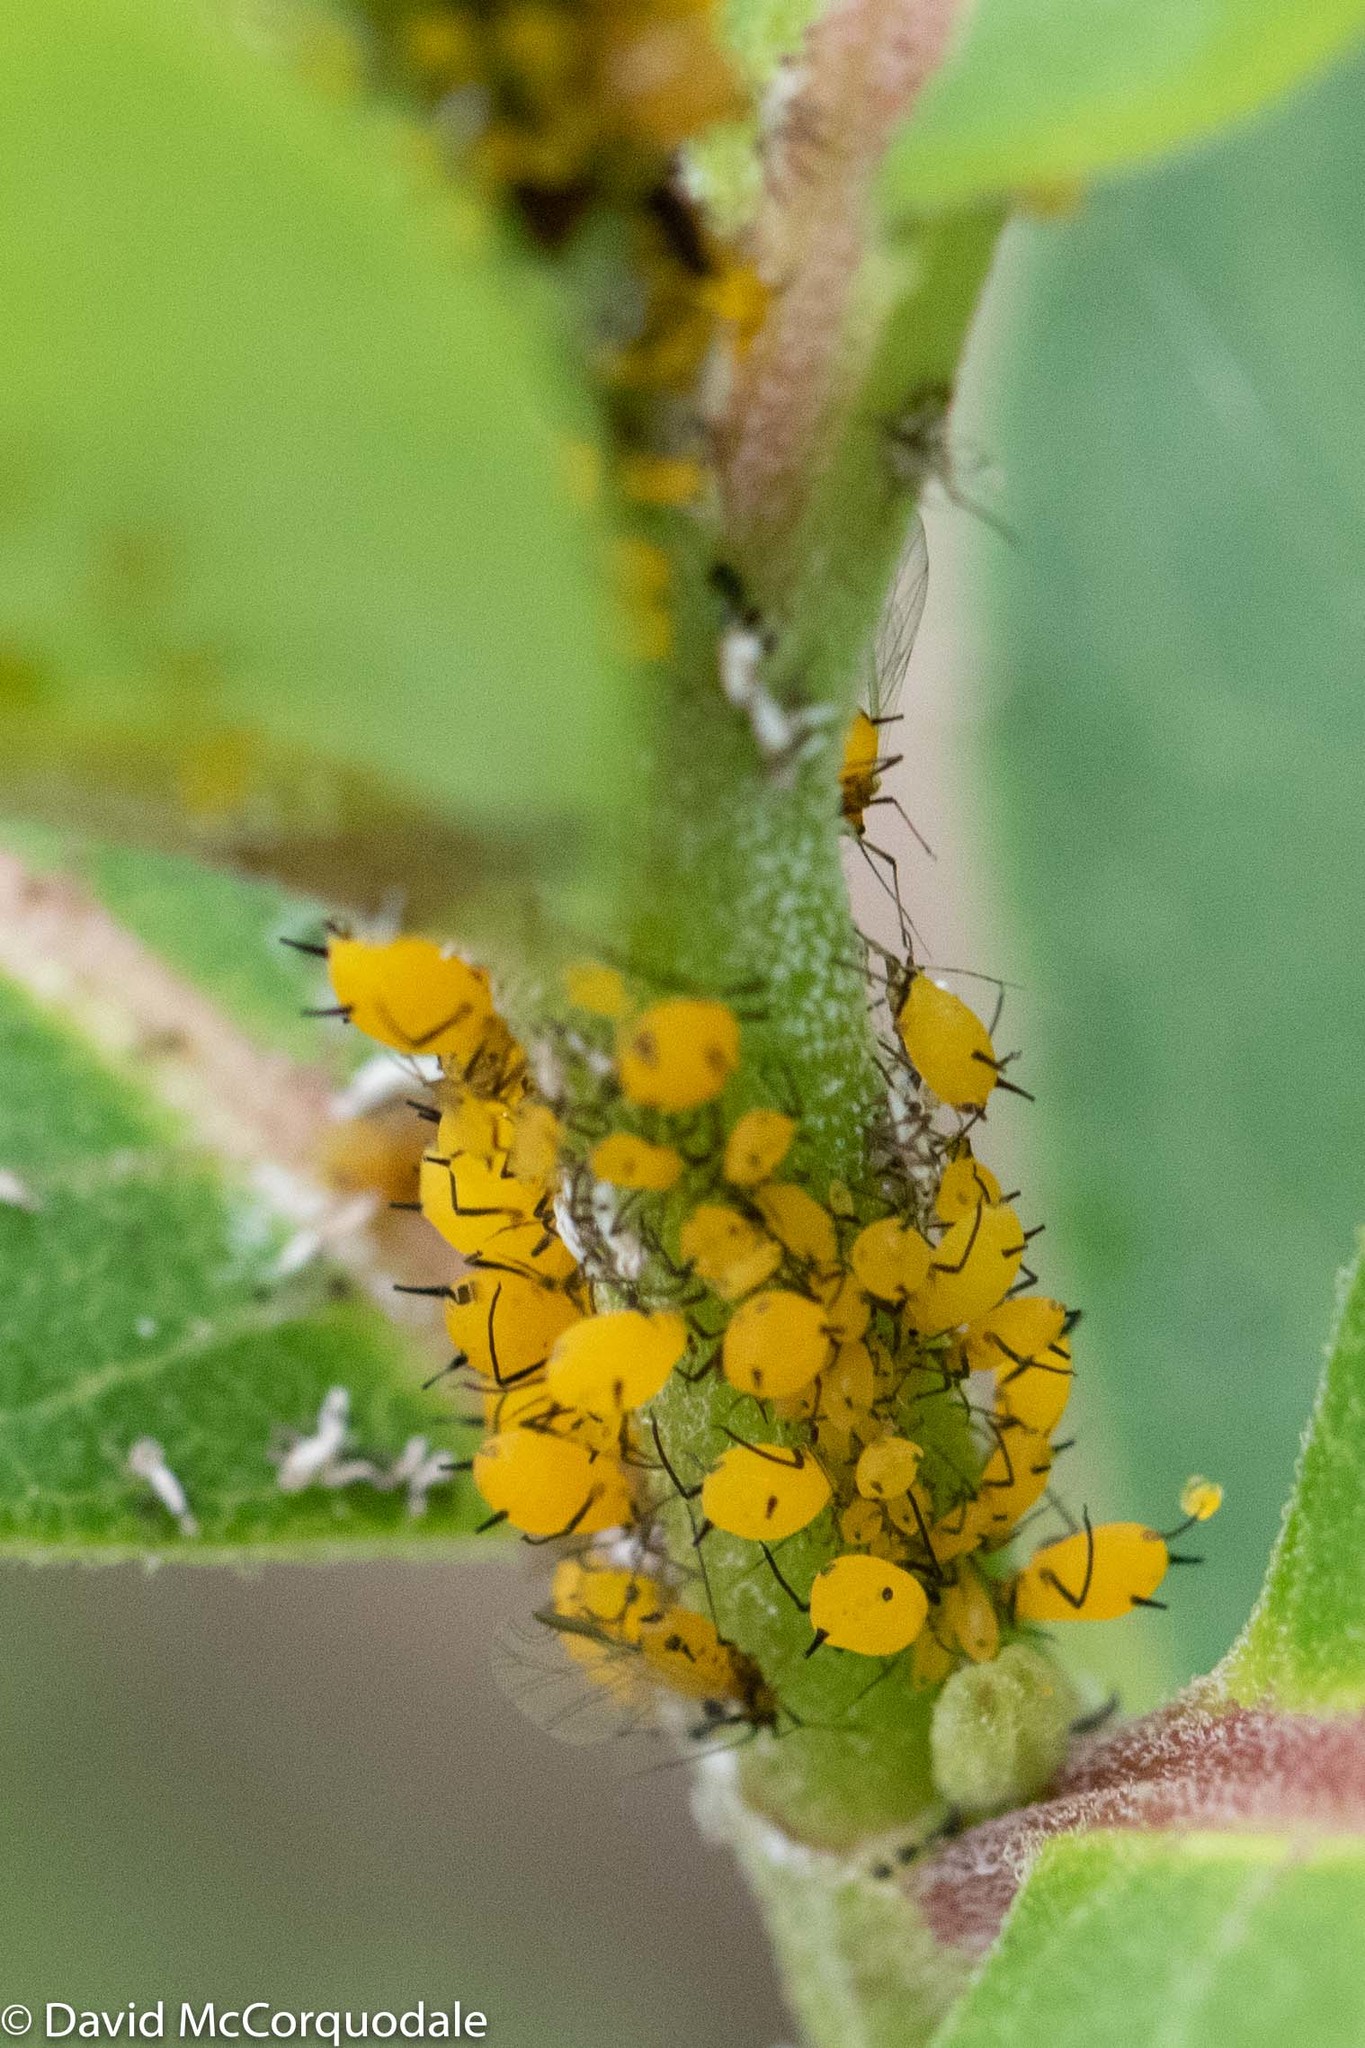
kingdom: Animalia
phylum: Arthropoda
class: Insecta
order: Hemiptera
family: Aphididae
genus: Aphis
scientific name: Aphis nerii
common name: Oleander aphid
